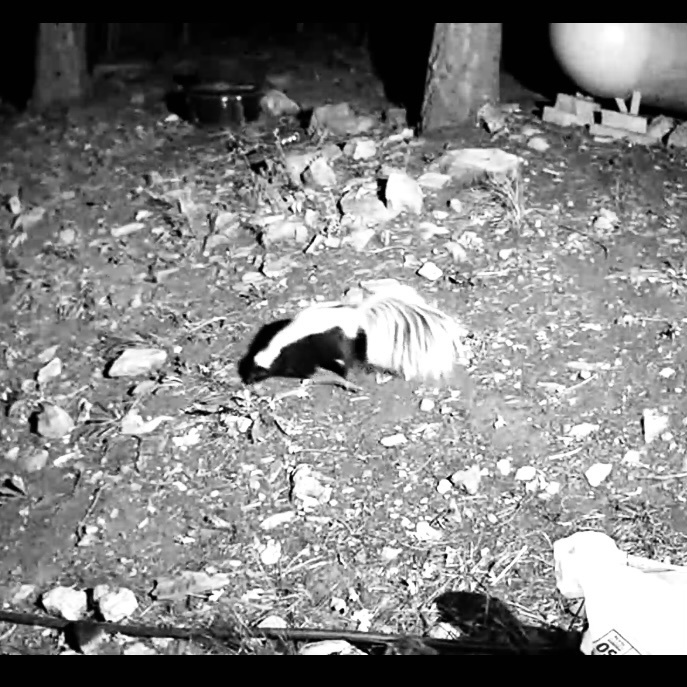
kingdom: Animalia
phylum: Chordata
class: Mammalia
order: Carnivora
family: Mephitidae
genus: Mephitis
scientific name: Mephitis mephitis
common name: Striped skunk
